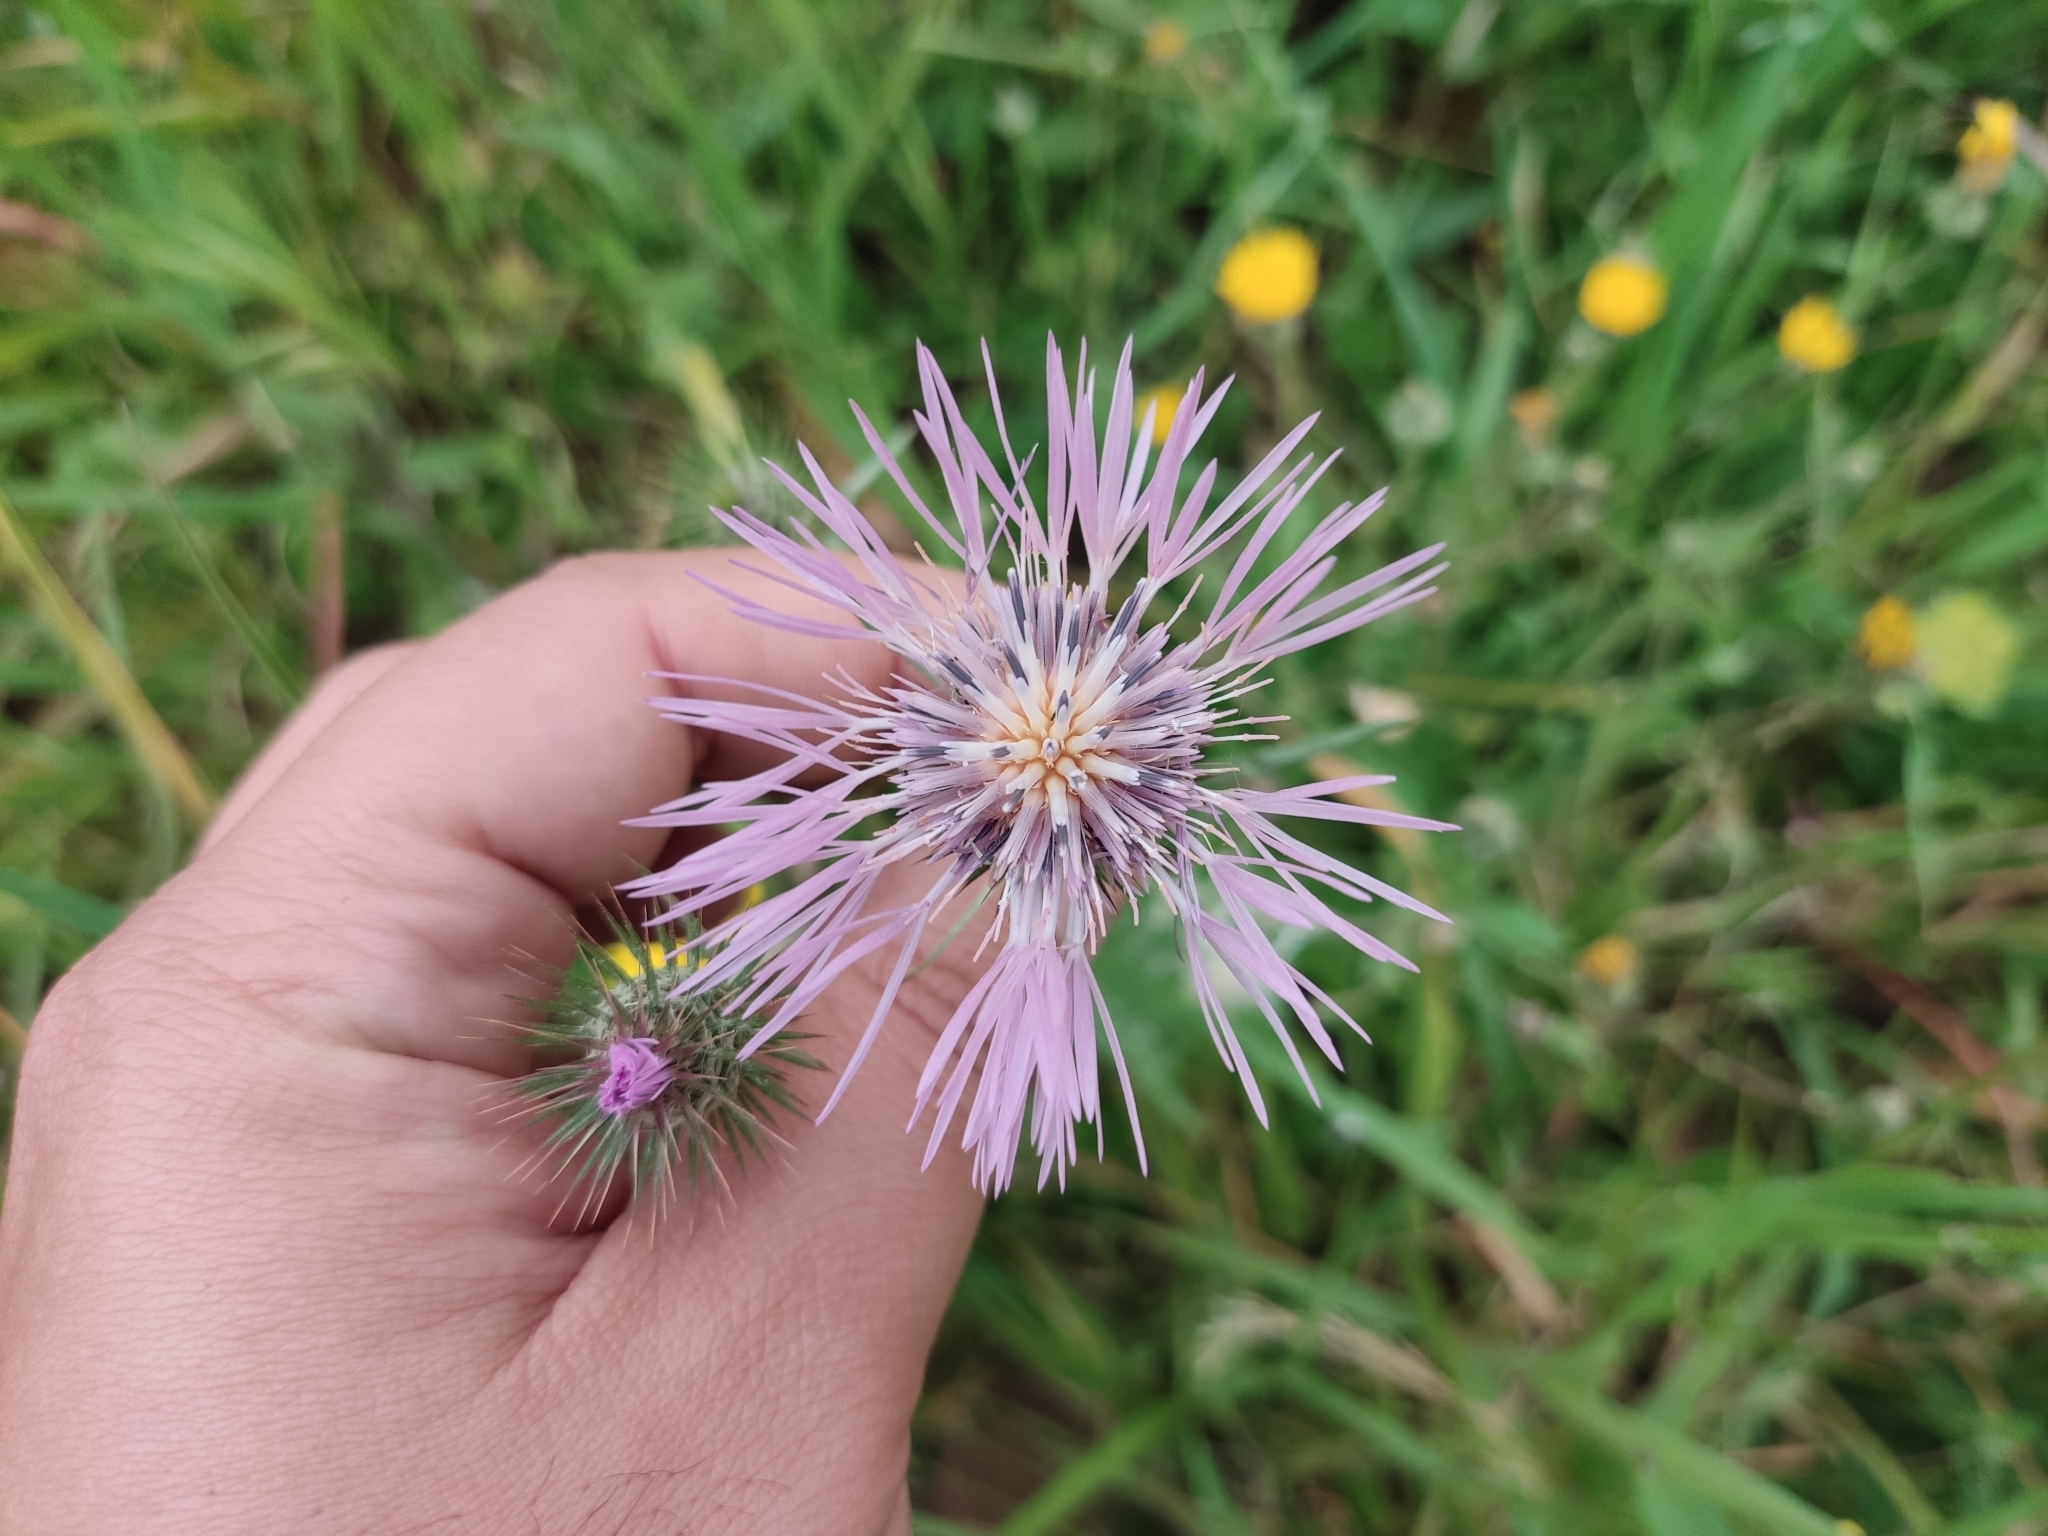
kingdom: Plantae
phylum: Tracheophyta
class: Magnoliopsida
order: Asterales
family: Asteraceae
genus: Galactites
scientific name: Galactites tomentosa
